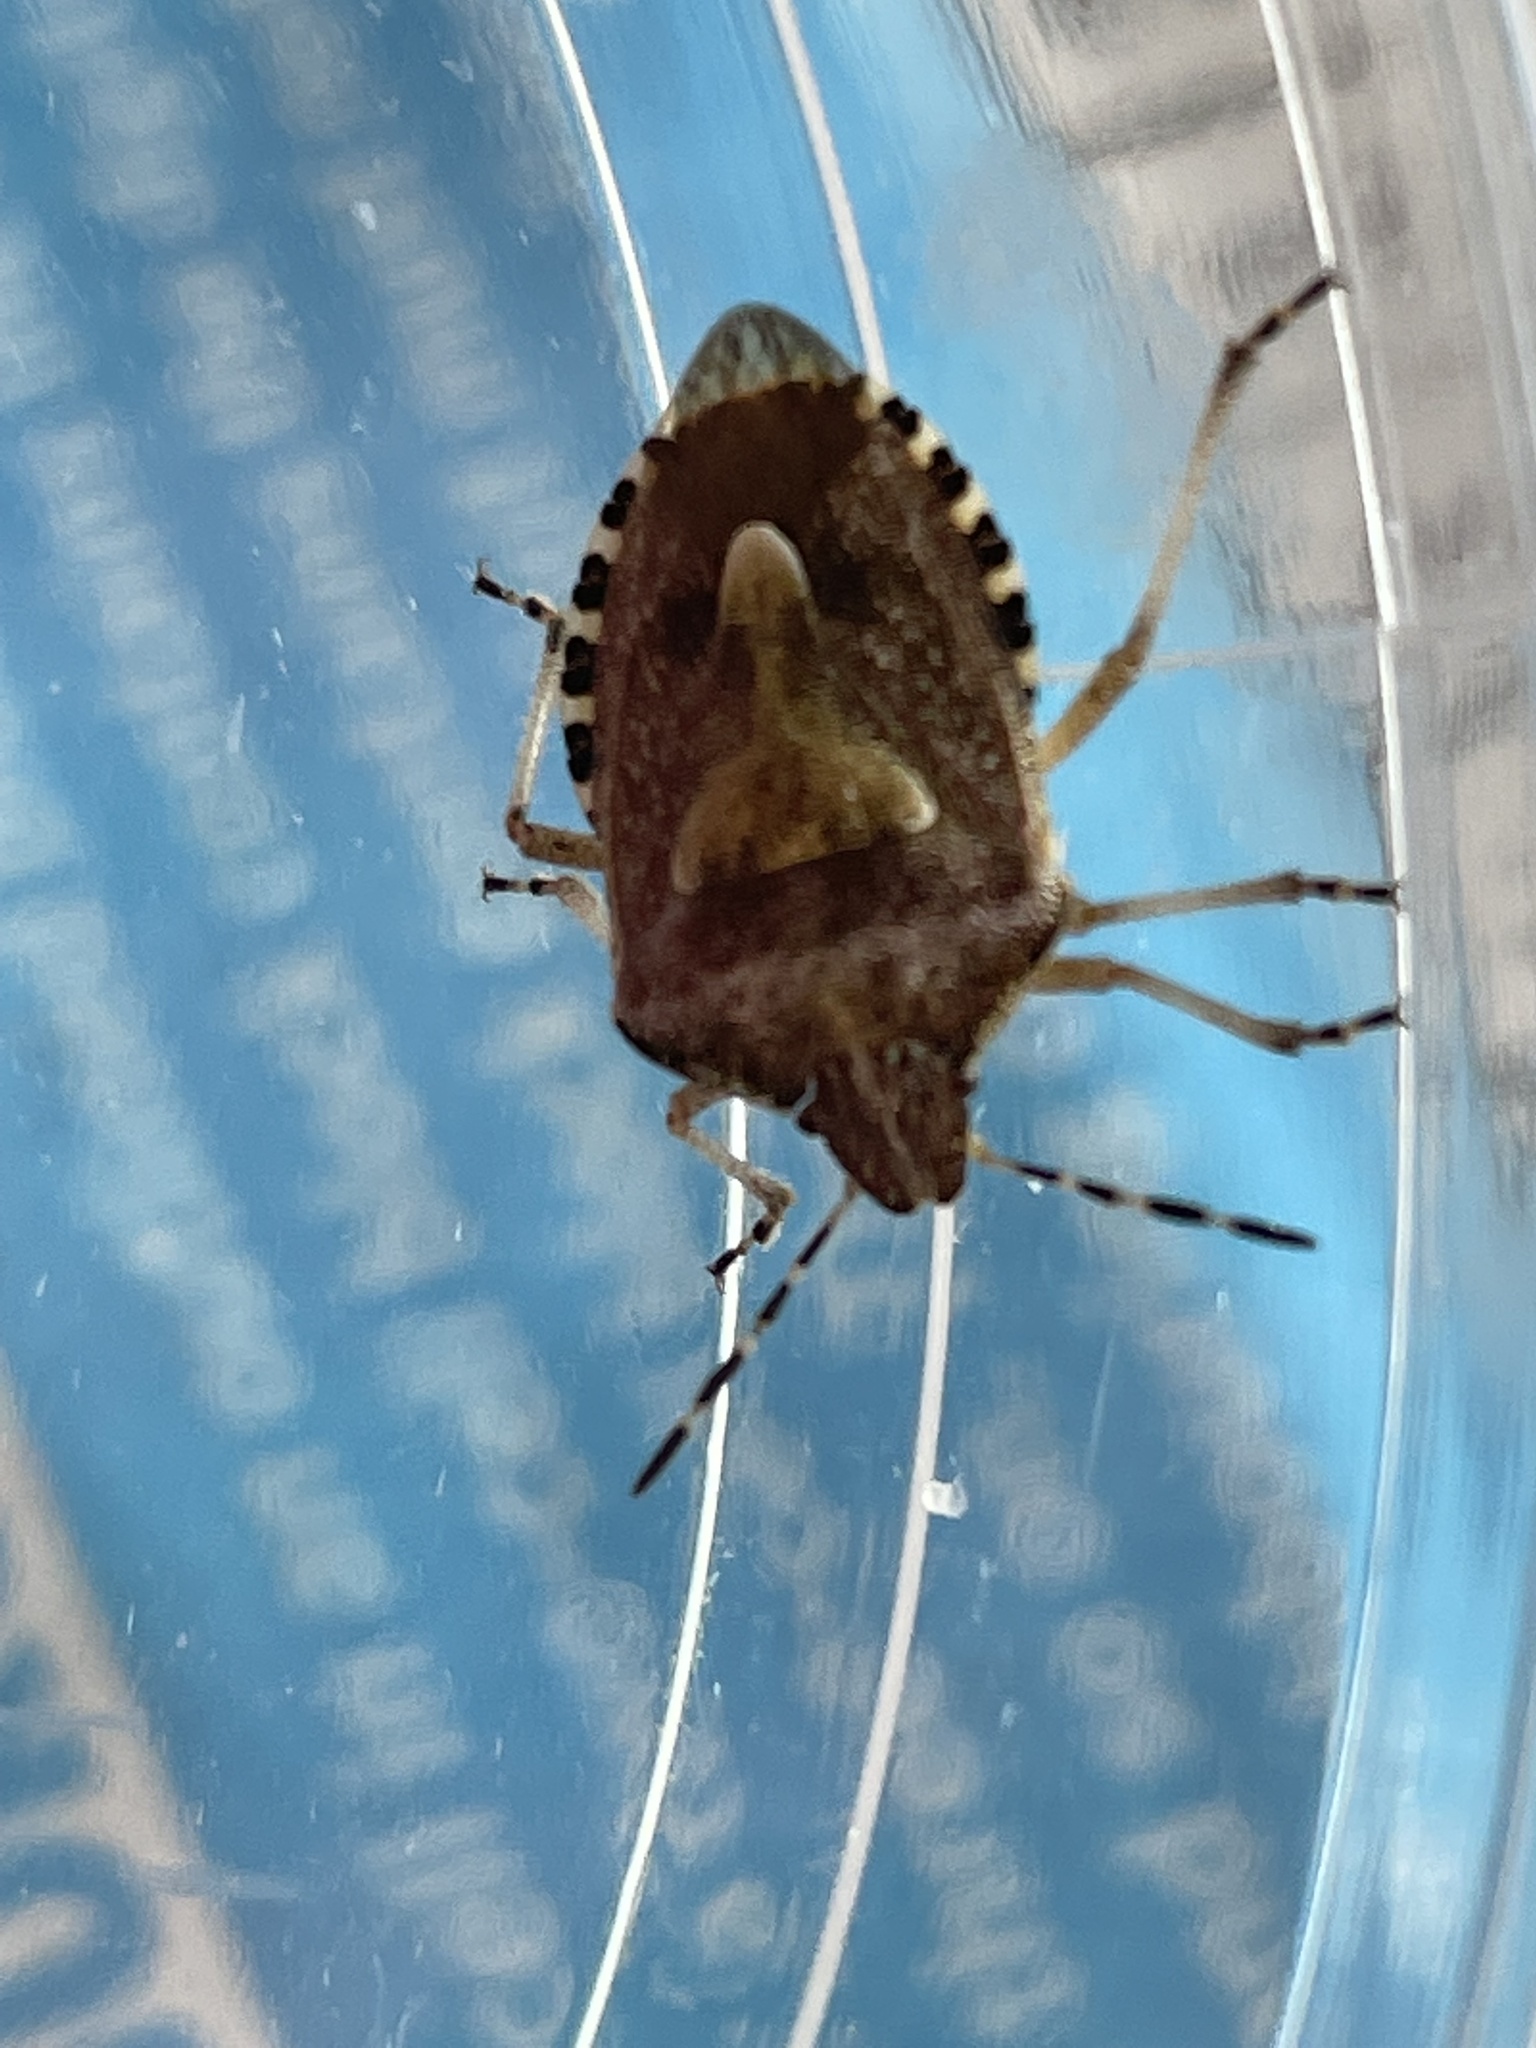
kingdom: Animalia
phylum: Arthropoda
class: Insecta
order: Hemiptera
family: Pentatomidae
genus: Dolycoris
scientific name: Dolycoris baccarum
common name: Sloe bug
